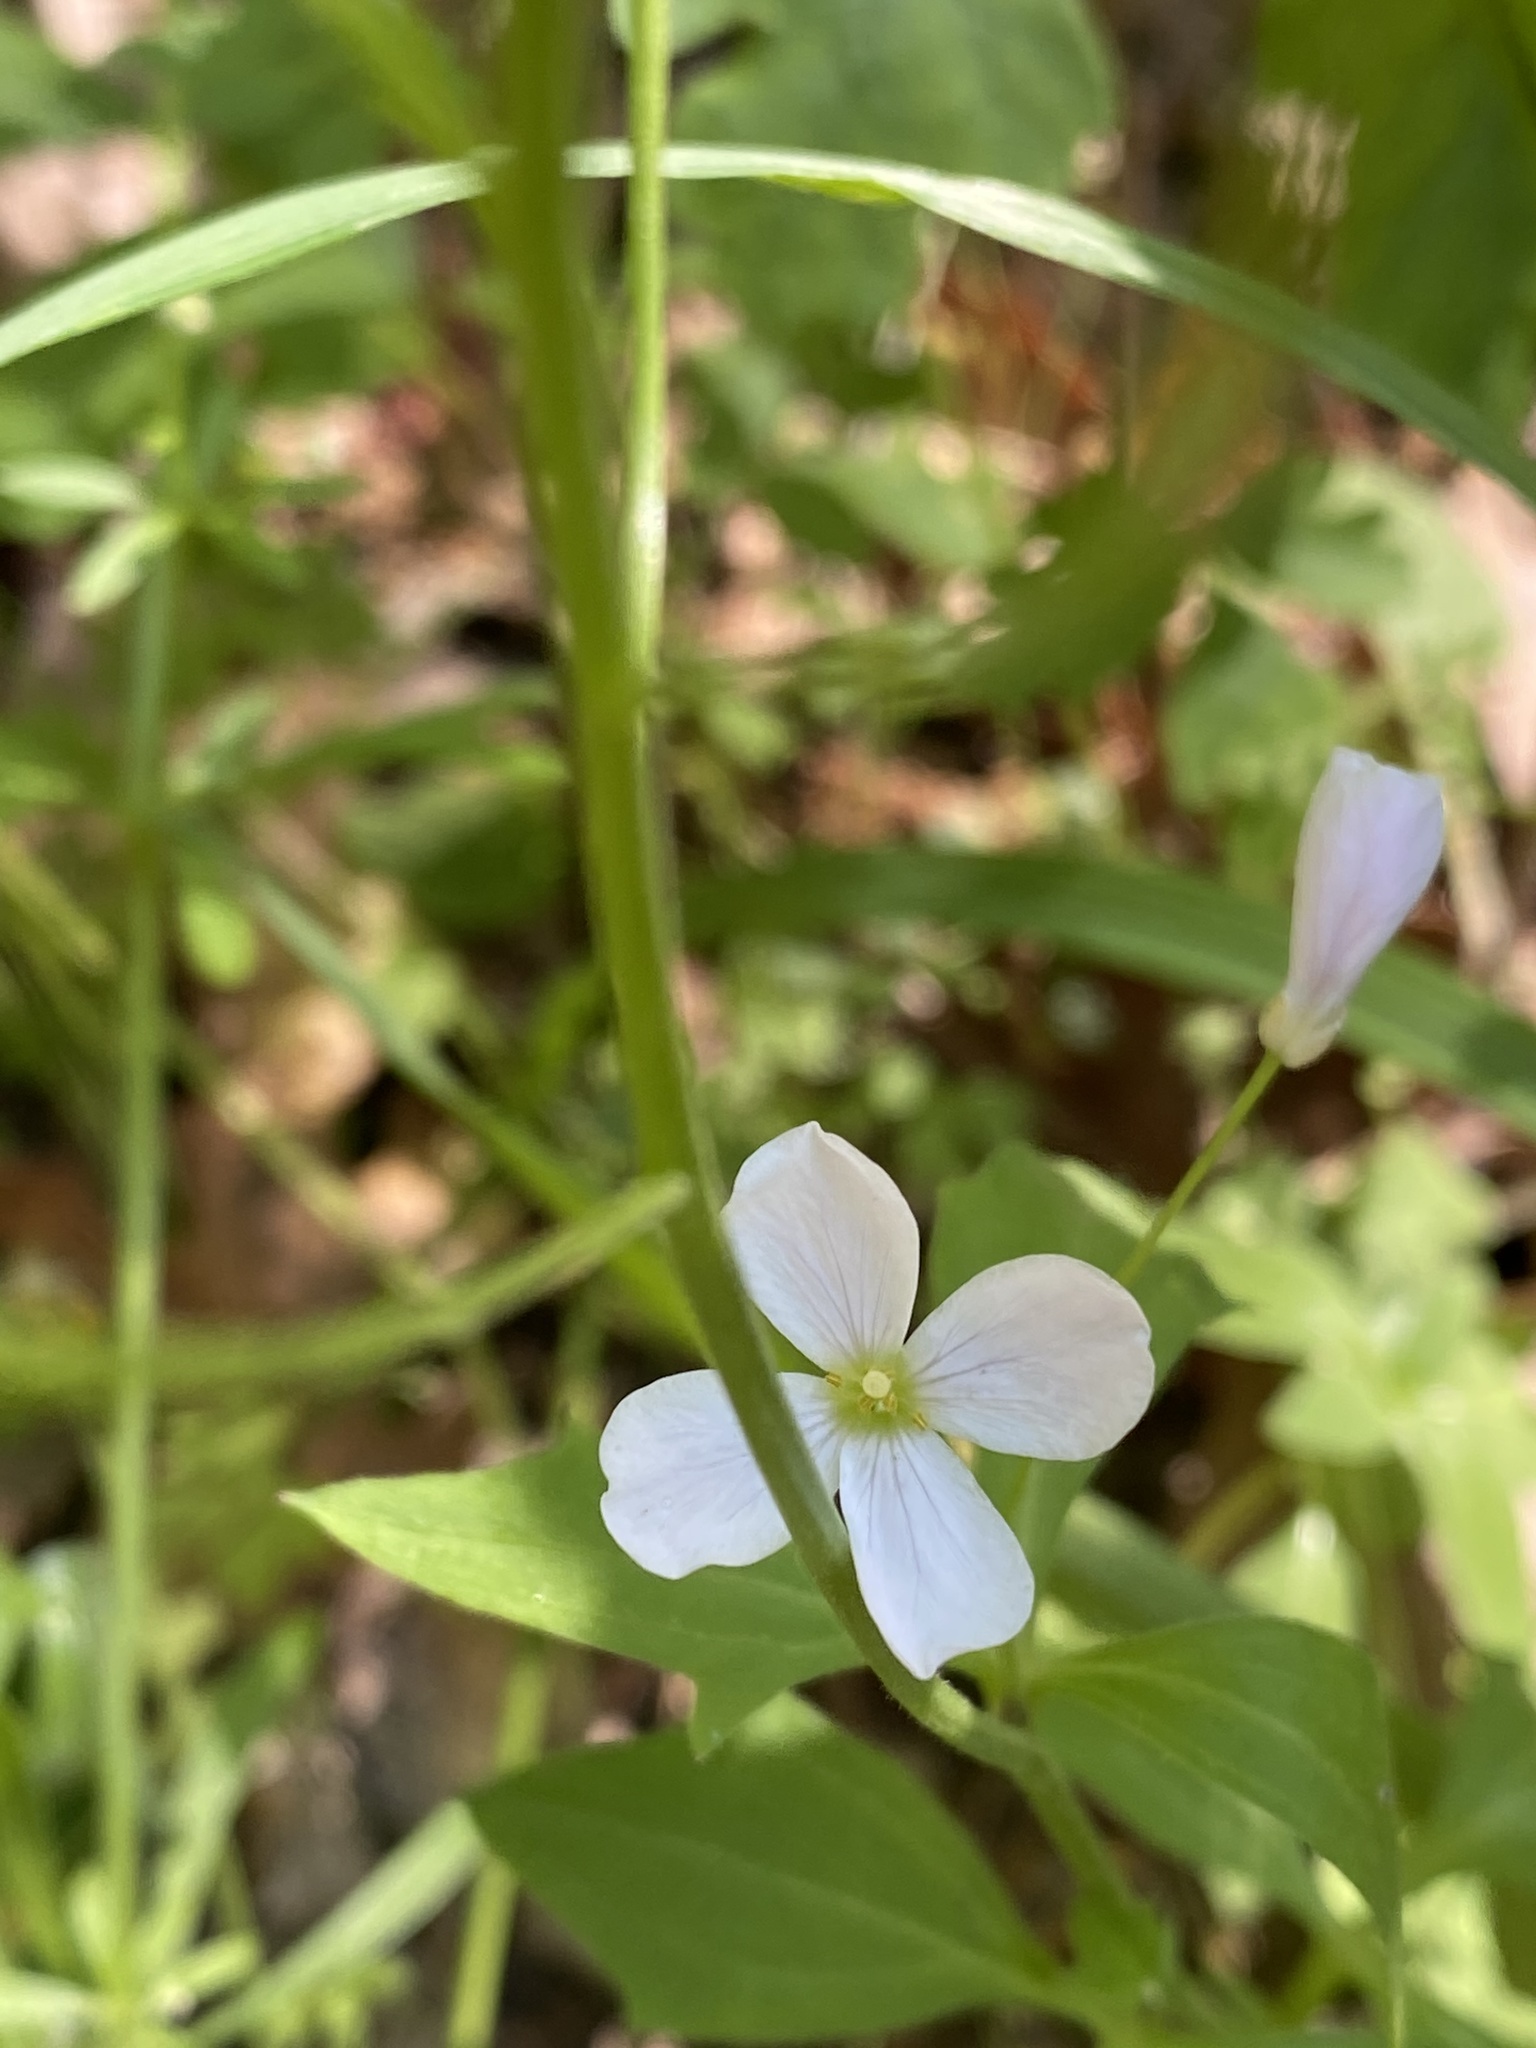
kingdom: Plantae
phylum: Tracheophyta
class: Magnoliopsida
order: Brassicales
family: Brassicaceae
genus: Cardamine
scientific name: Cardamine californica
